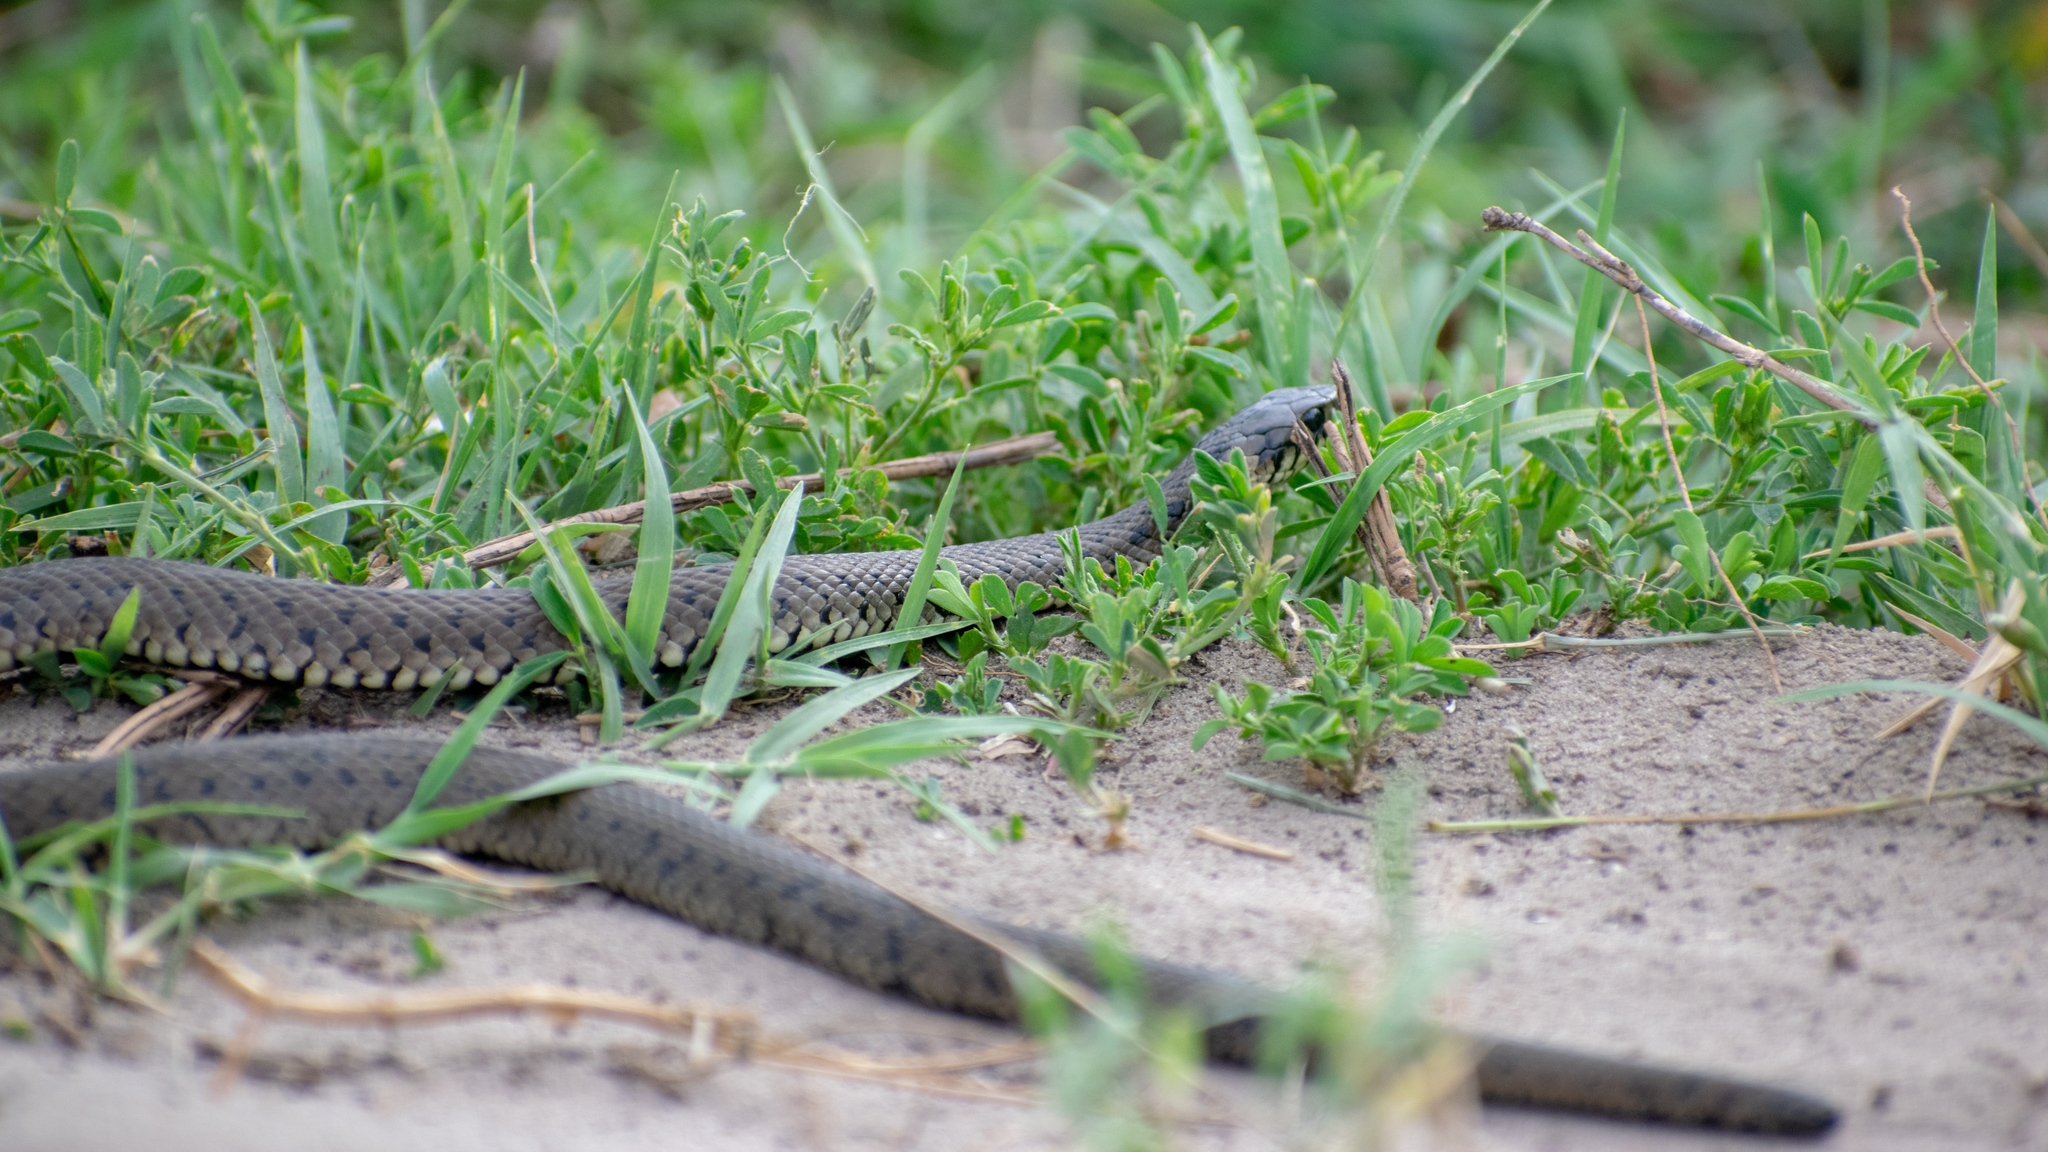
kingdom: Animalia
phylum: Chordata
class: Squamata
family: Colubridae
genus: Natrix
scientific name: Natrix natrix
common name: Grass snake
